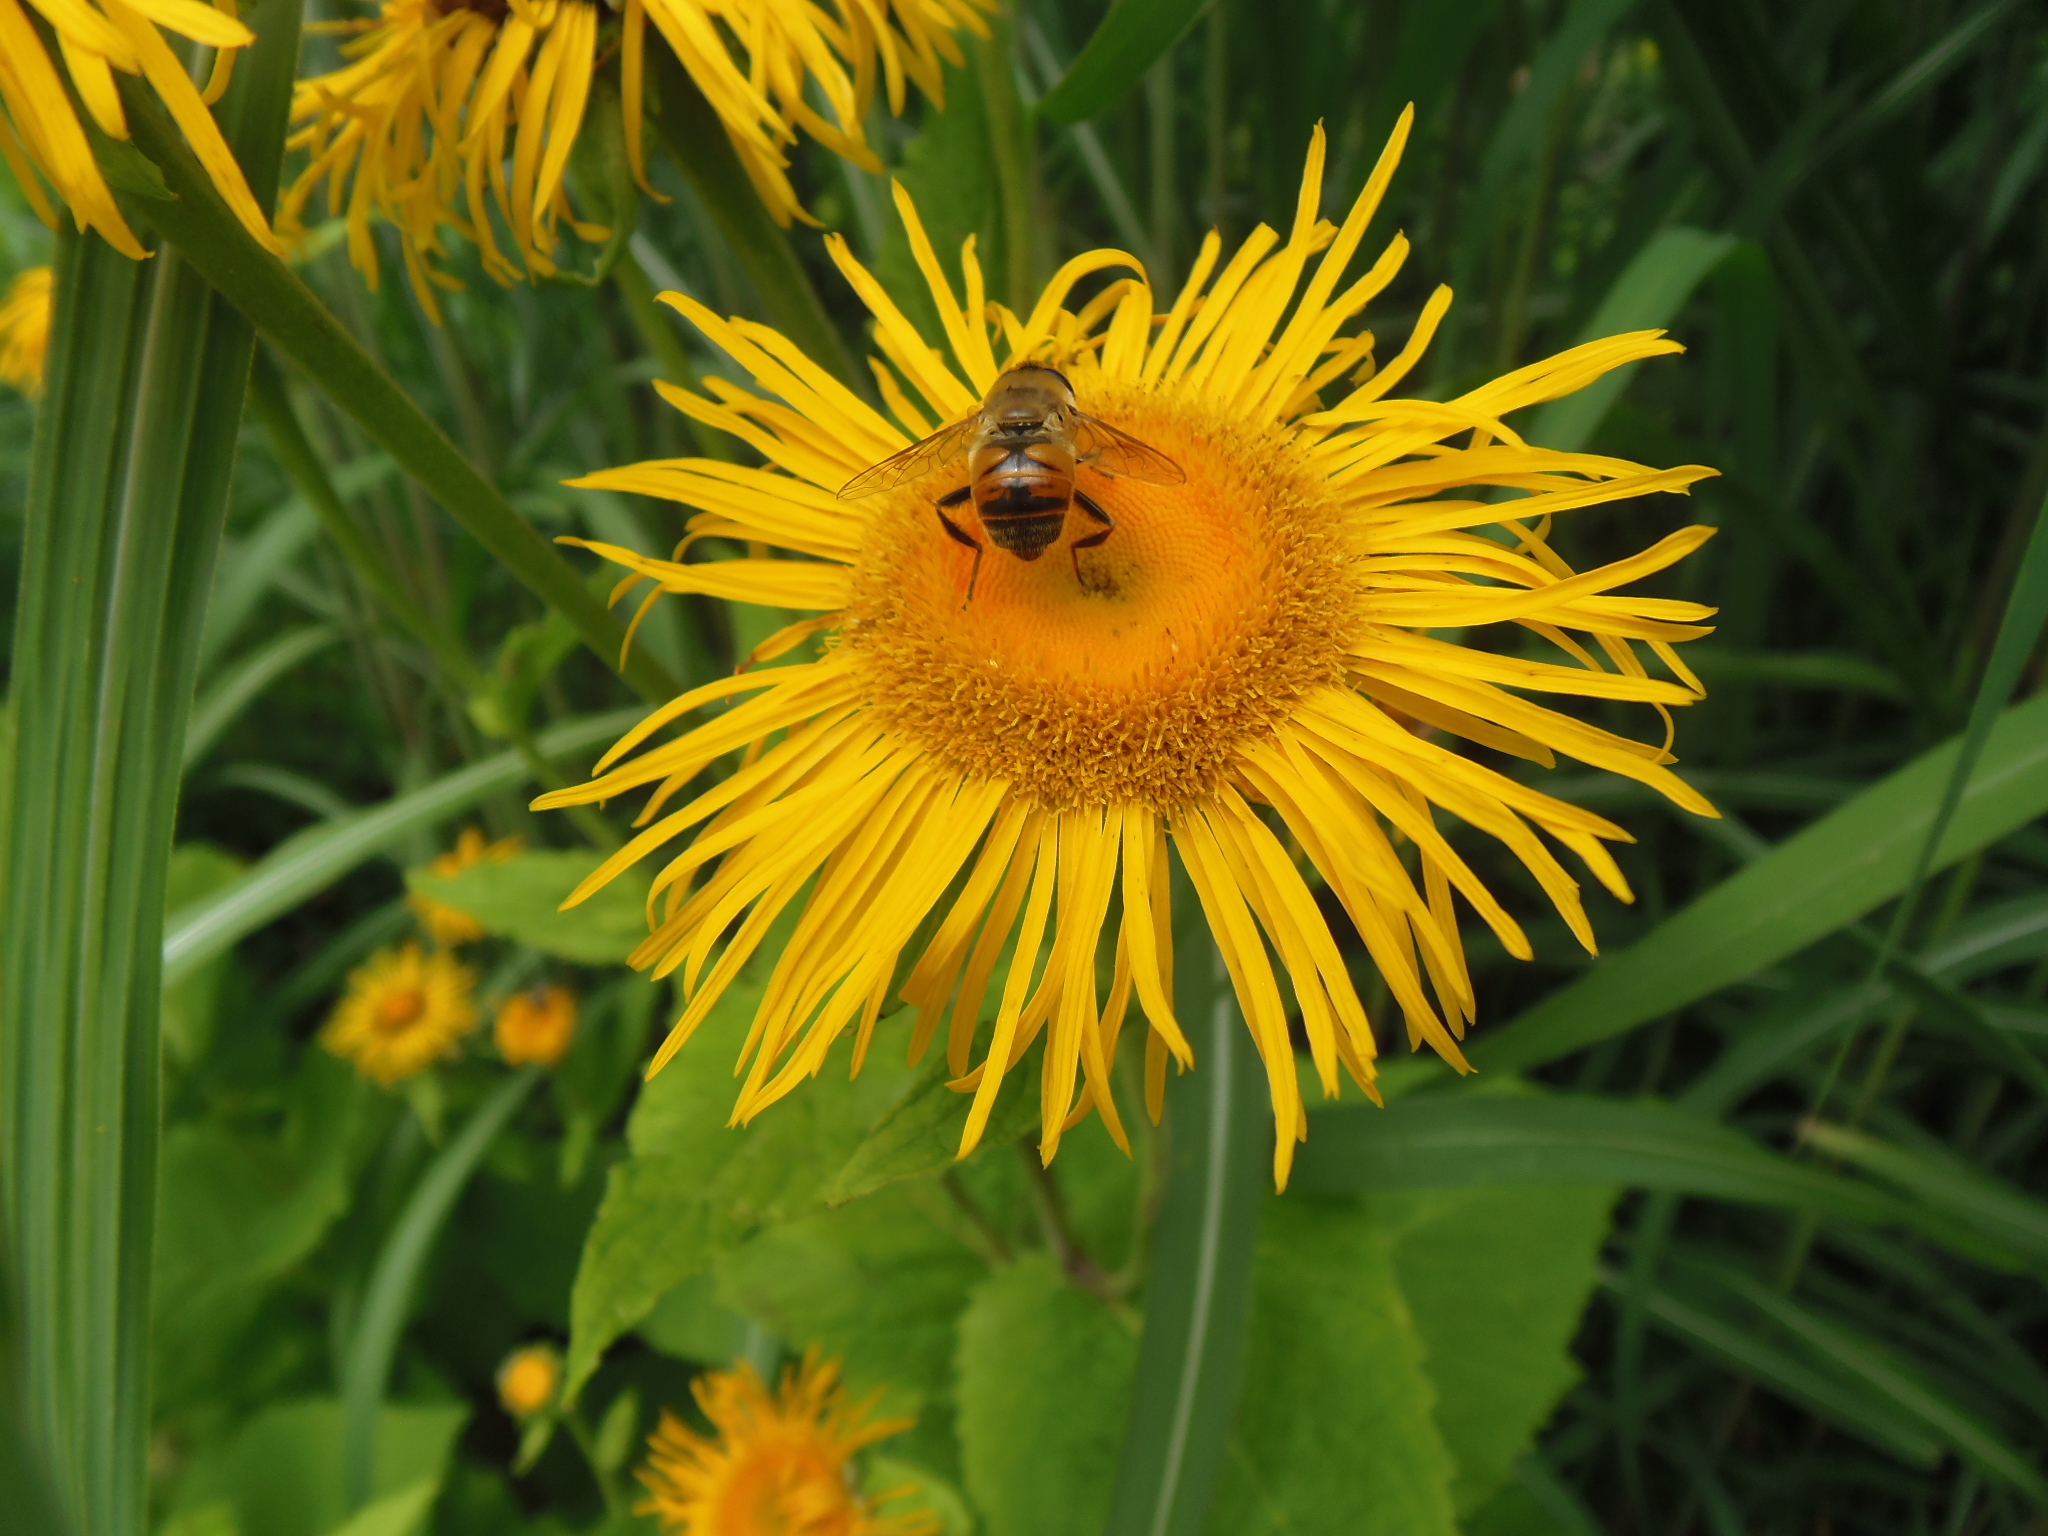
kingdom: Animalia
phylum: Arthropoda
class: Insecta
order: Diptera
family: Syrphidae
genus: Eristalis
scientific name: Eristalis tenax
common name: Drone fly
